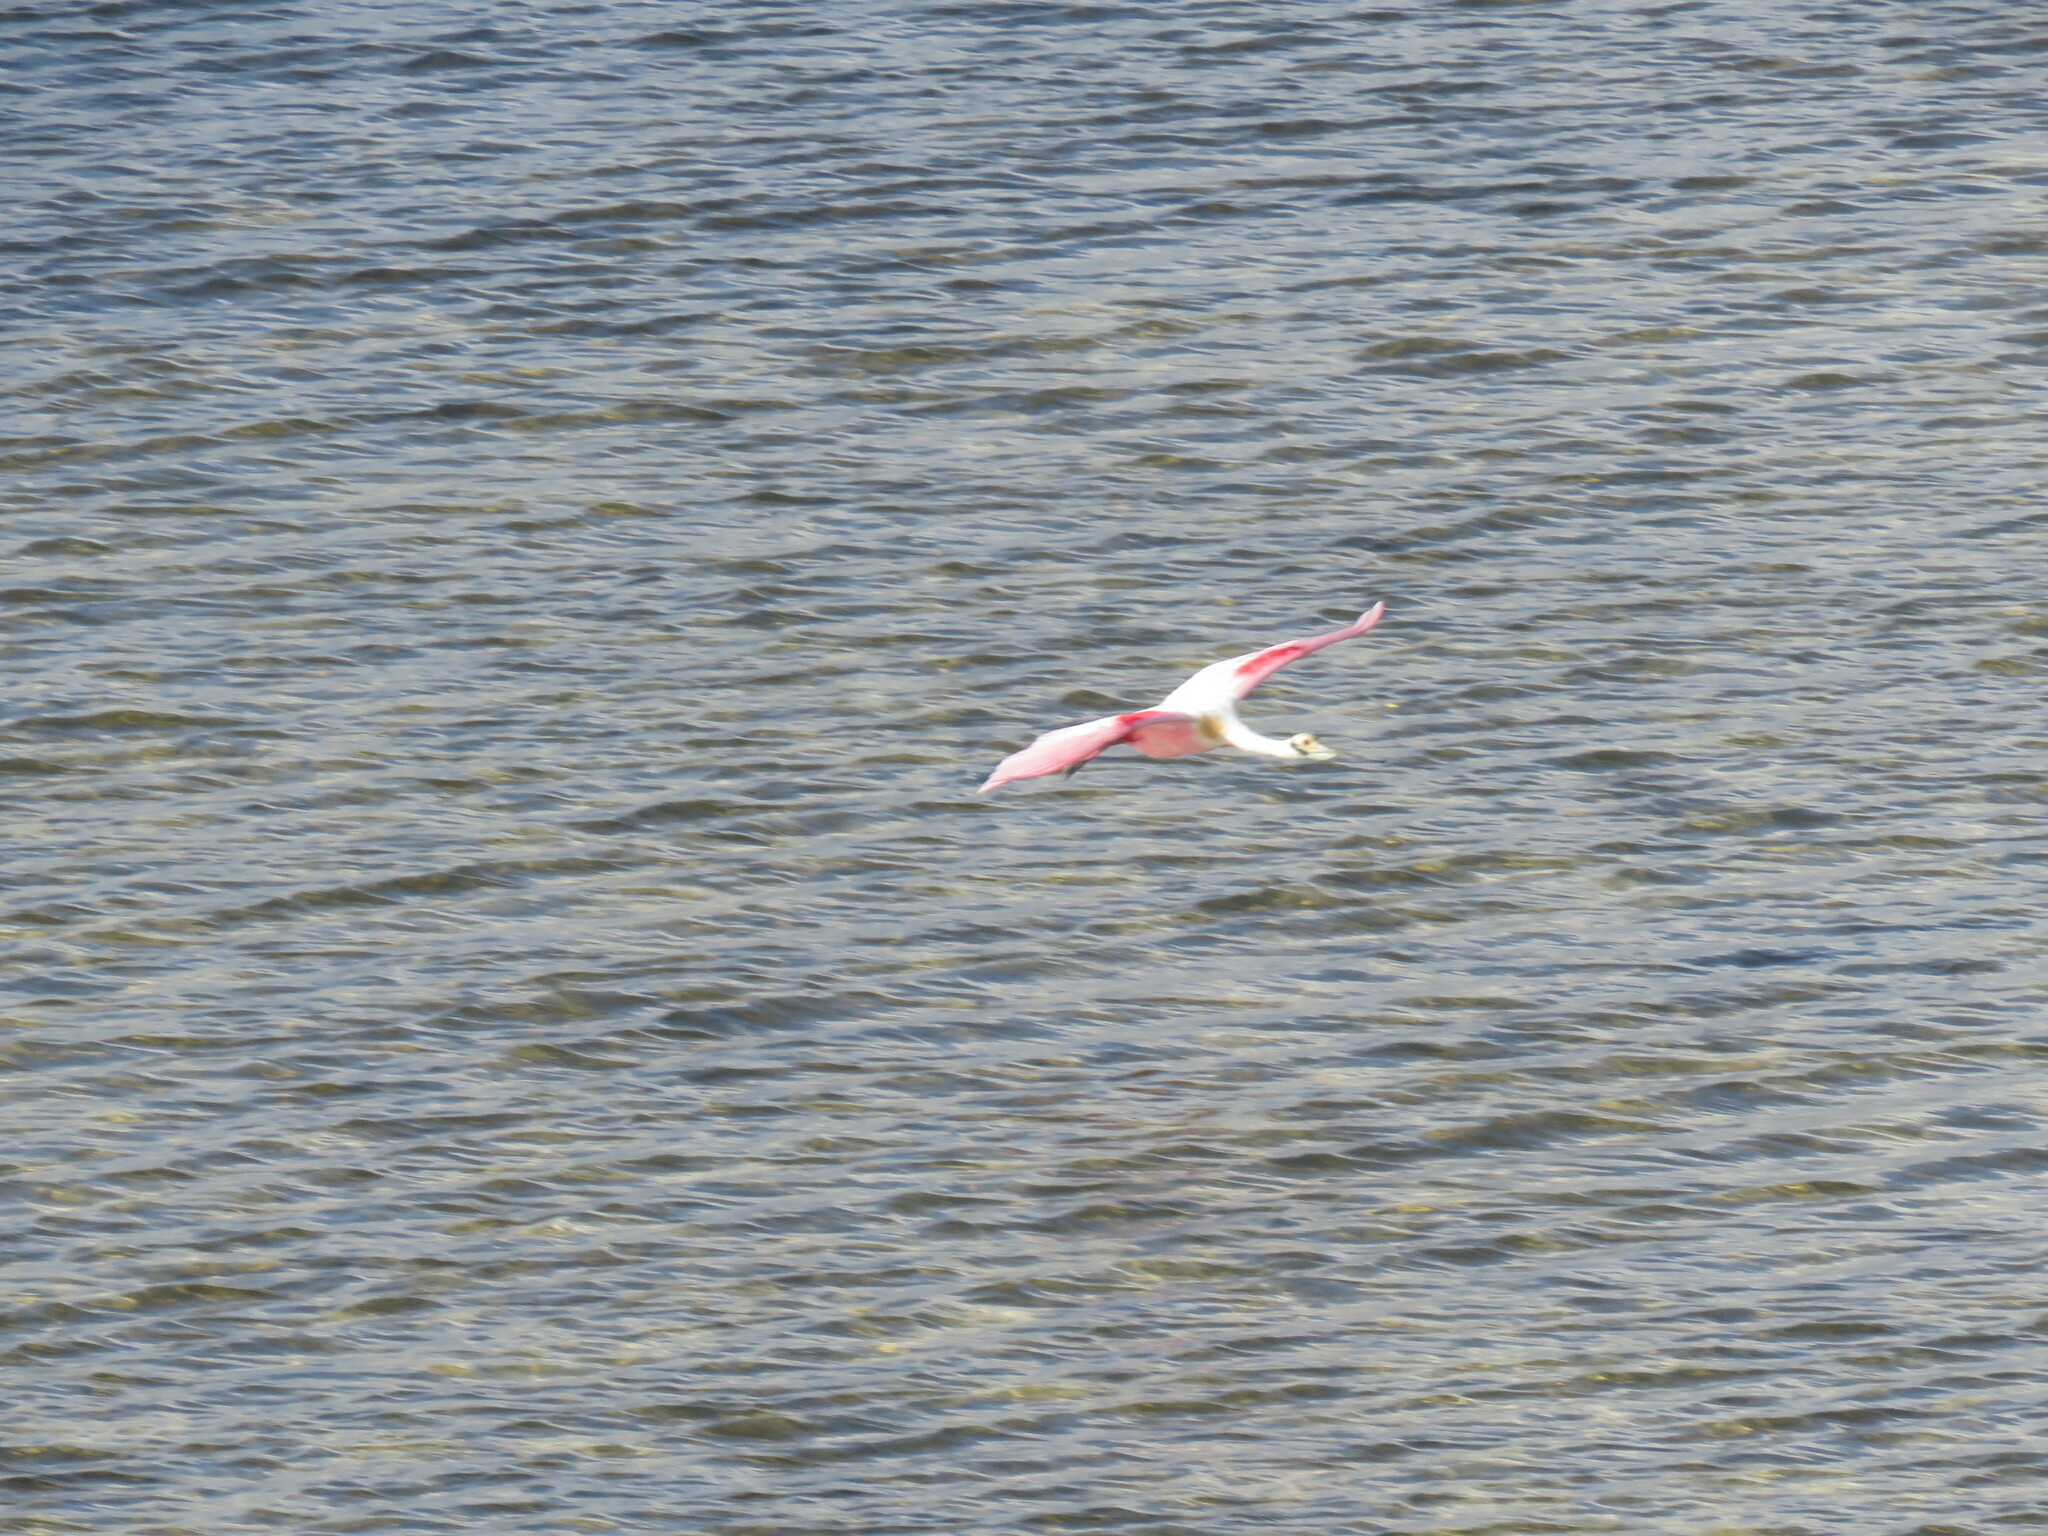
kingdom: Animalia
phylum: Chordata
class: Aves
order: Pelecaniformes
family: Threskiornithidae
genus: Platalea
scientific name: Platalea ajaja
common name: Roseate spoonbill
